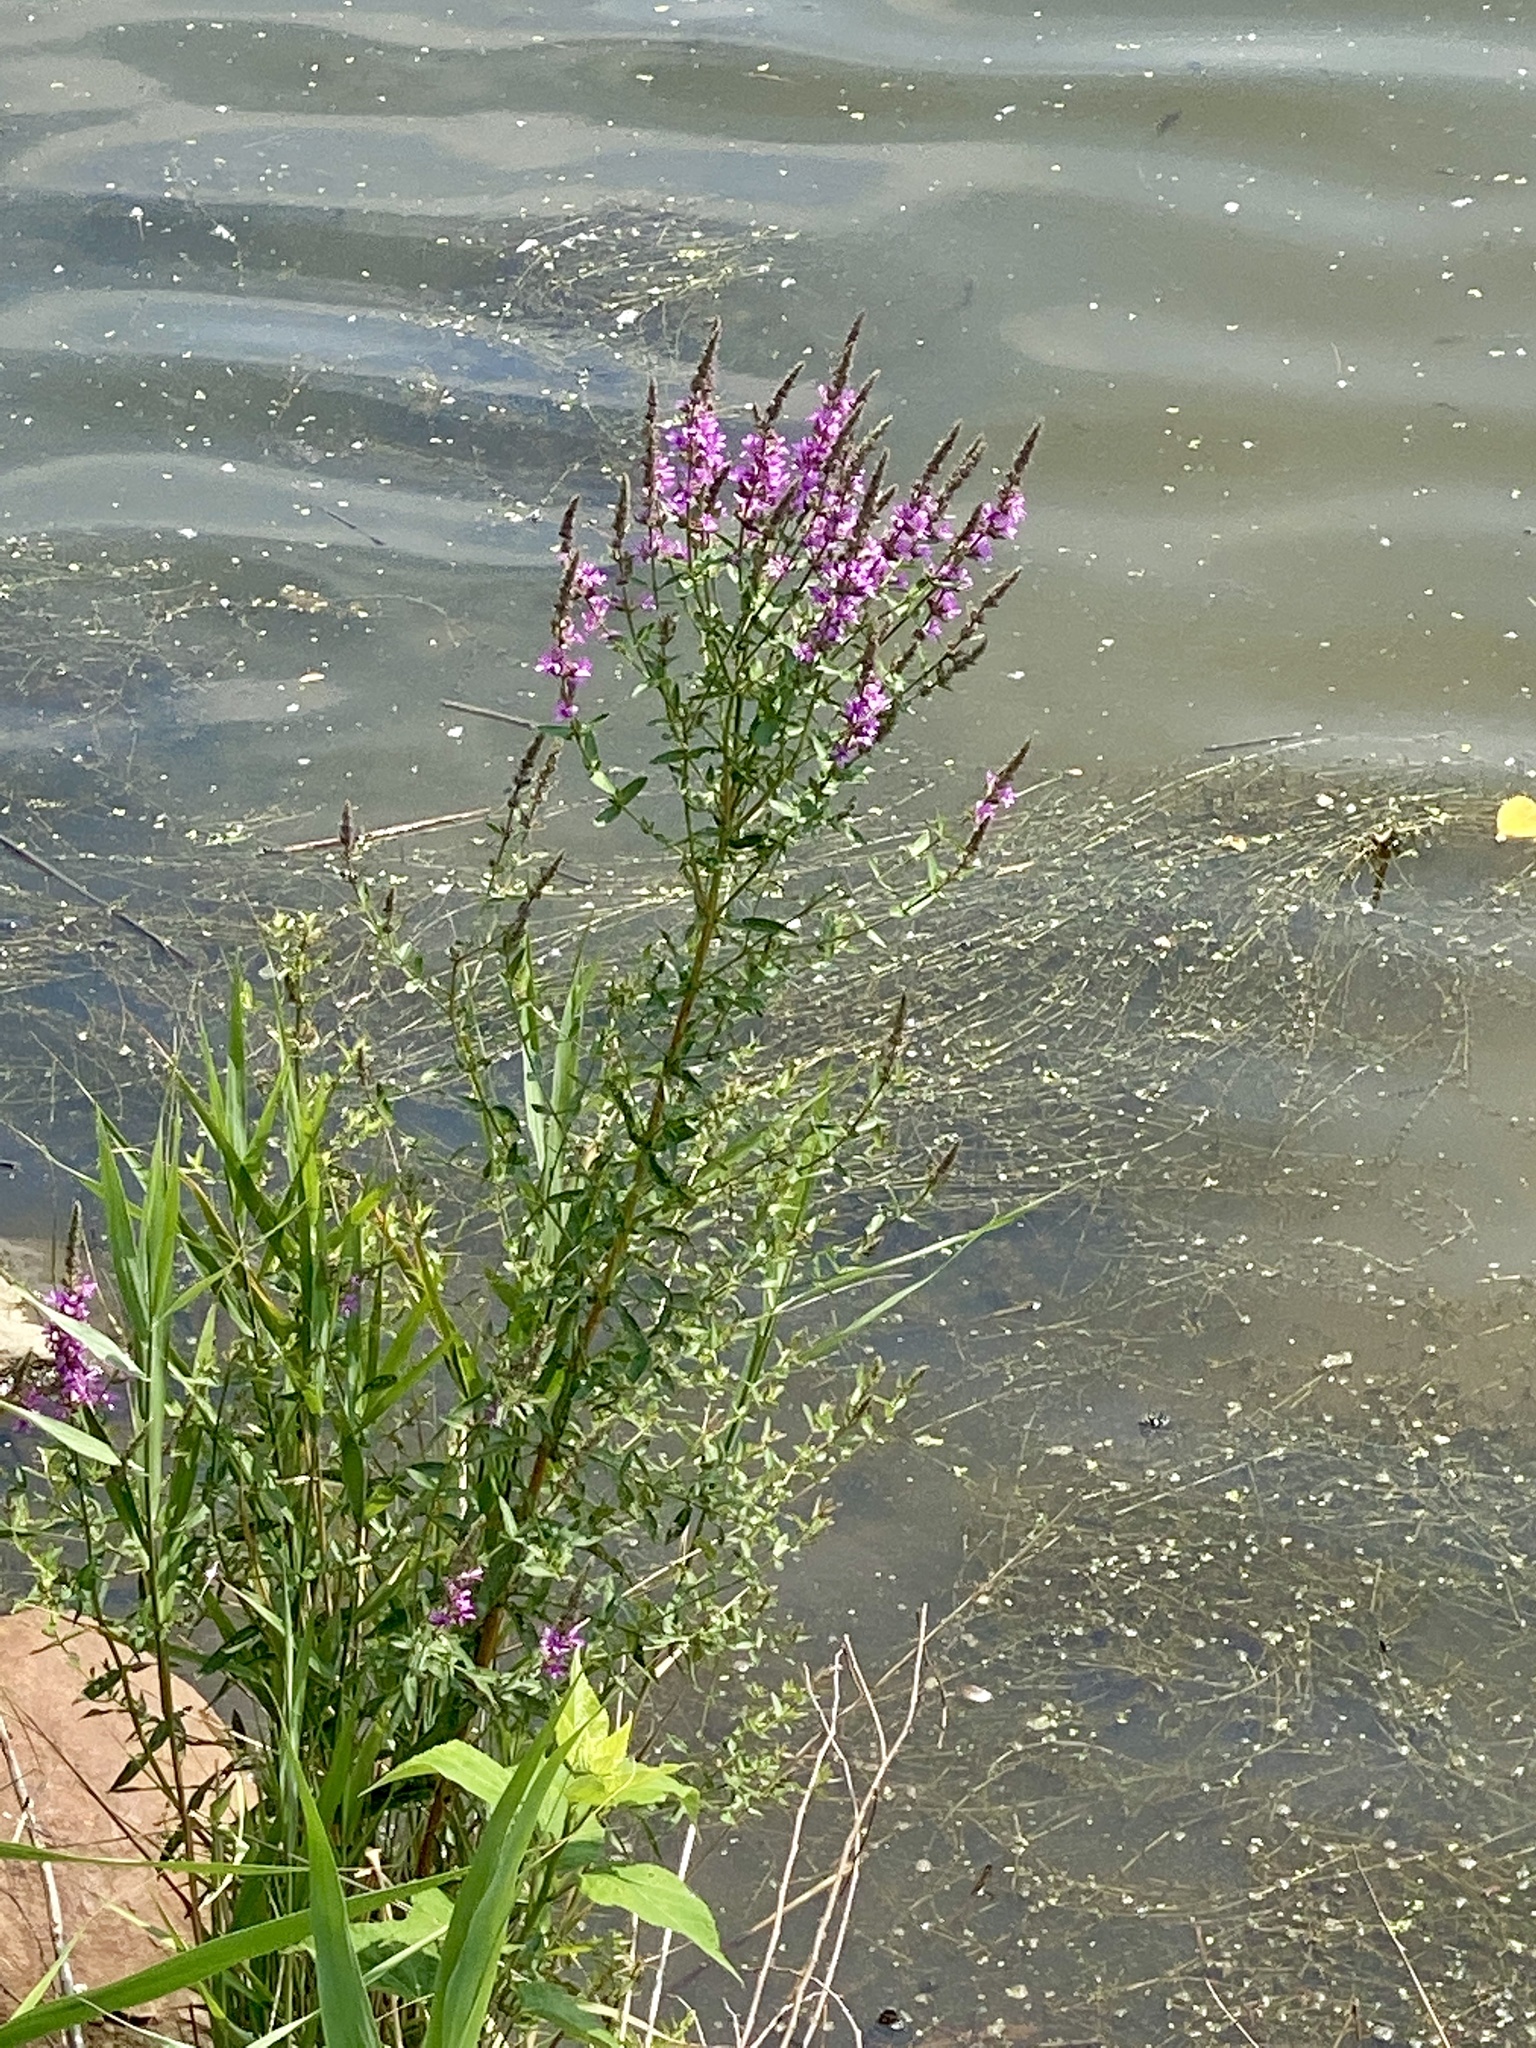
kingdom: Plantae
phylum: Tracheophyta
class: Magnoliopsida
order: Myrtales
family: Lythraceae
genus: Lythrum
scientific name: Lythrum salicaria
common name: Purple loosestrife
